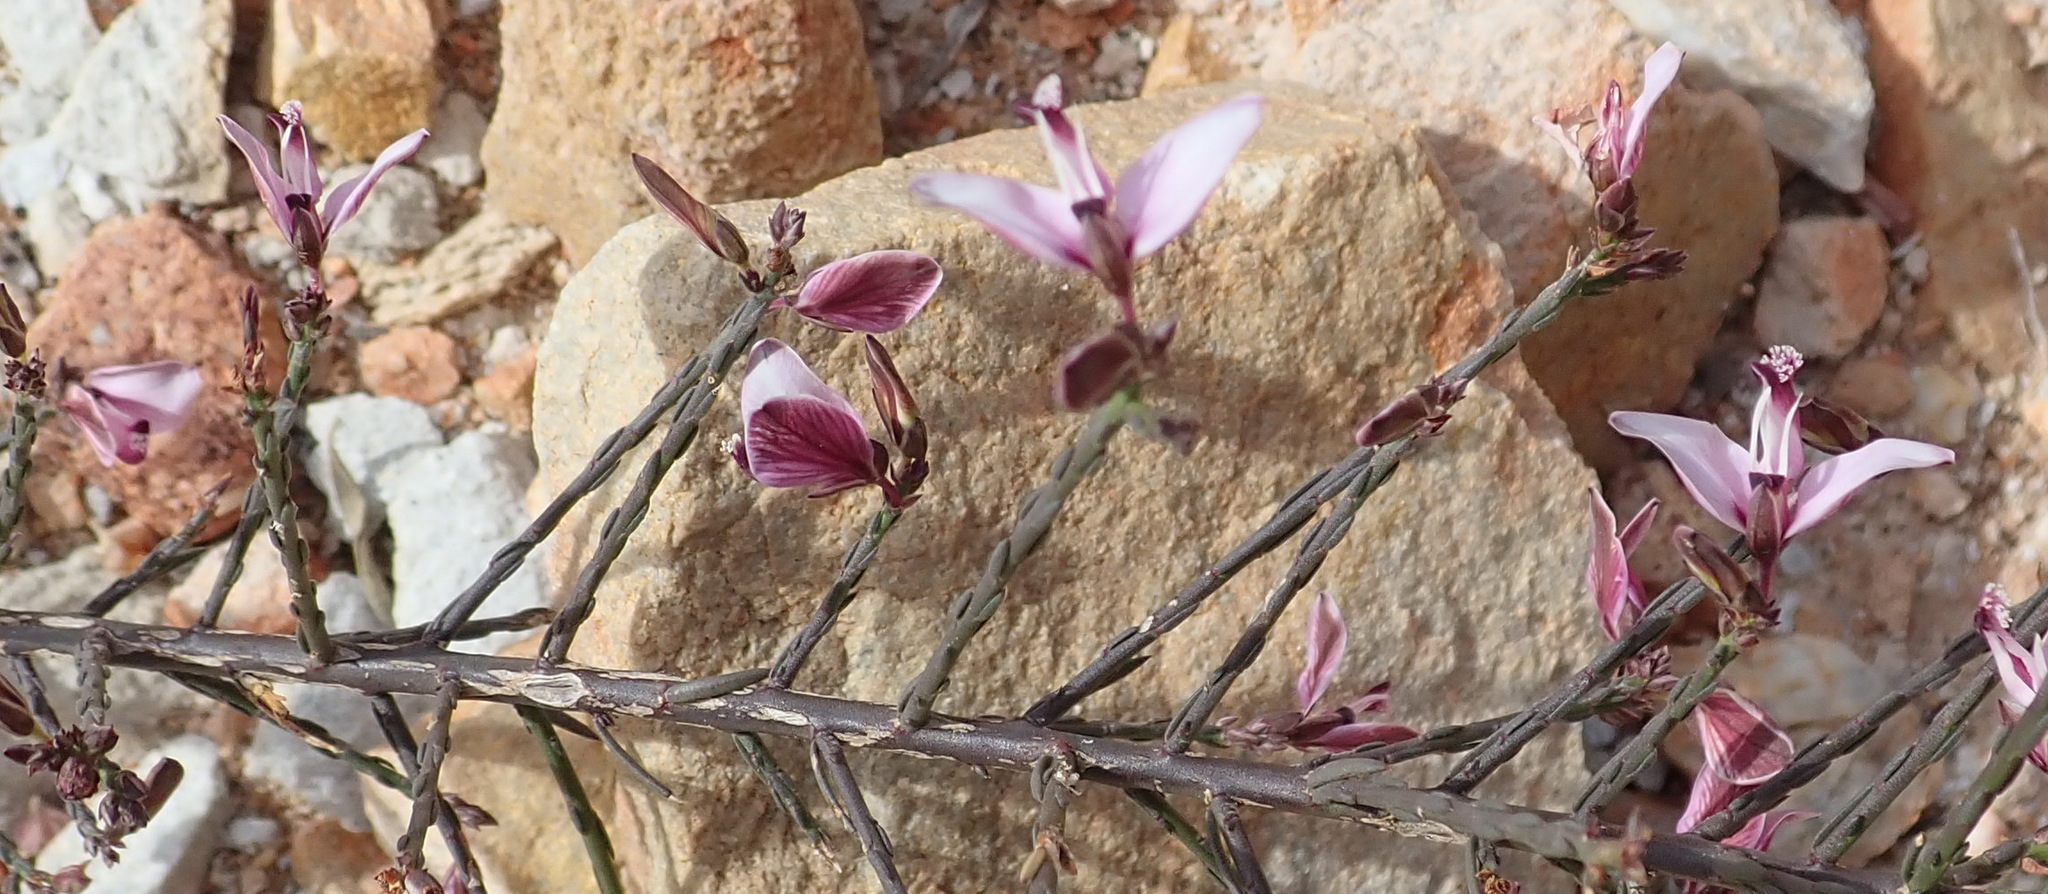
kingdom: Plantae
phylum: Tracheophyta
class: Magnoliopsida
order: Fabales
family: Polygalaceae
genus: Polygala
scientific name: Polygala microlopha
